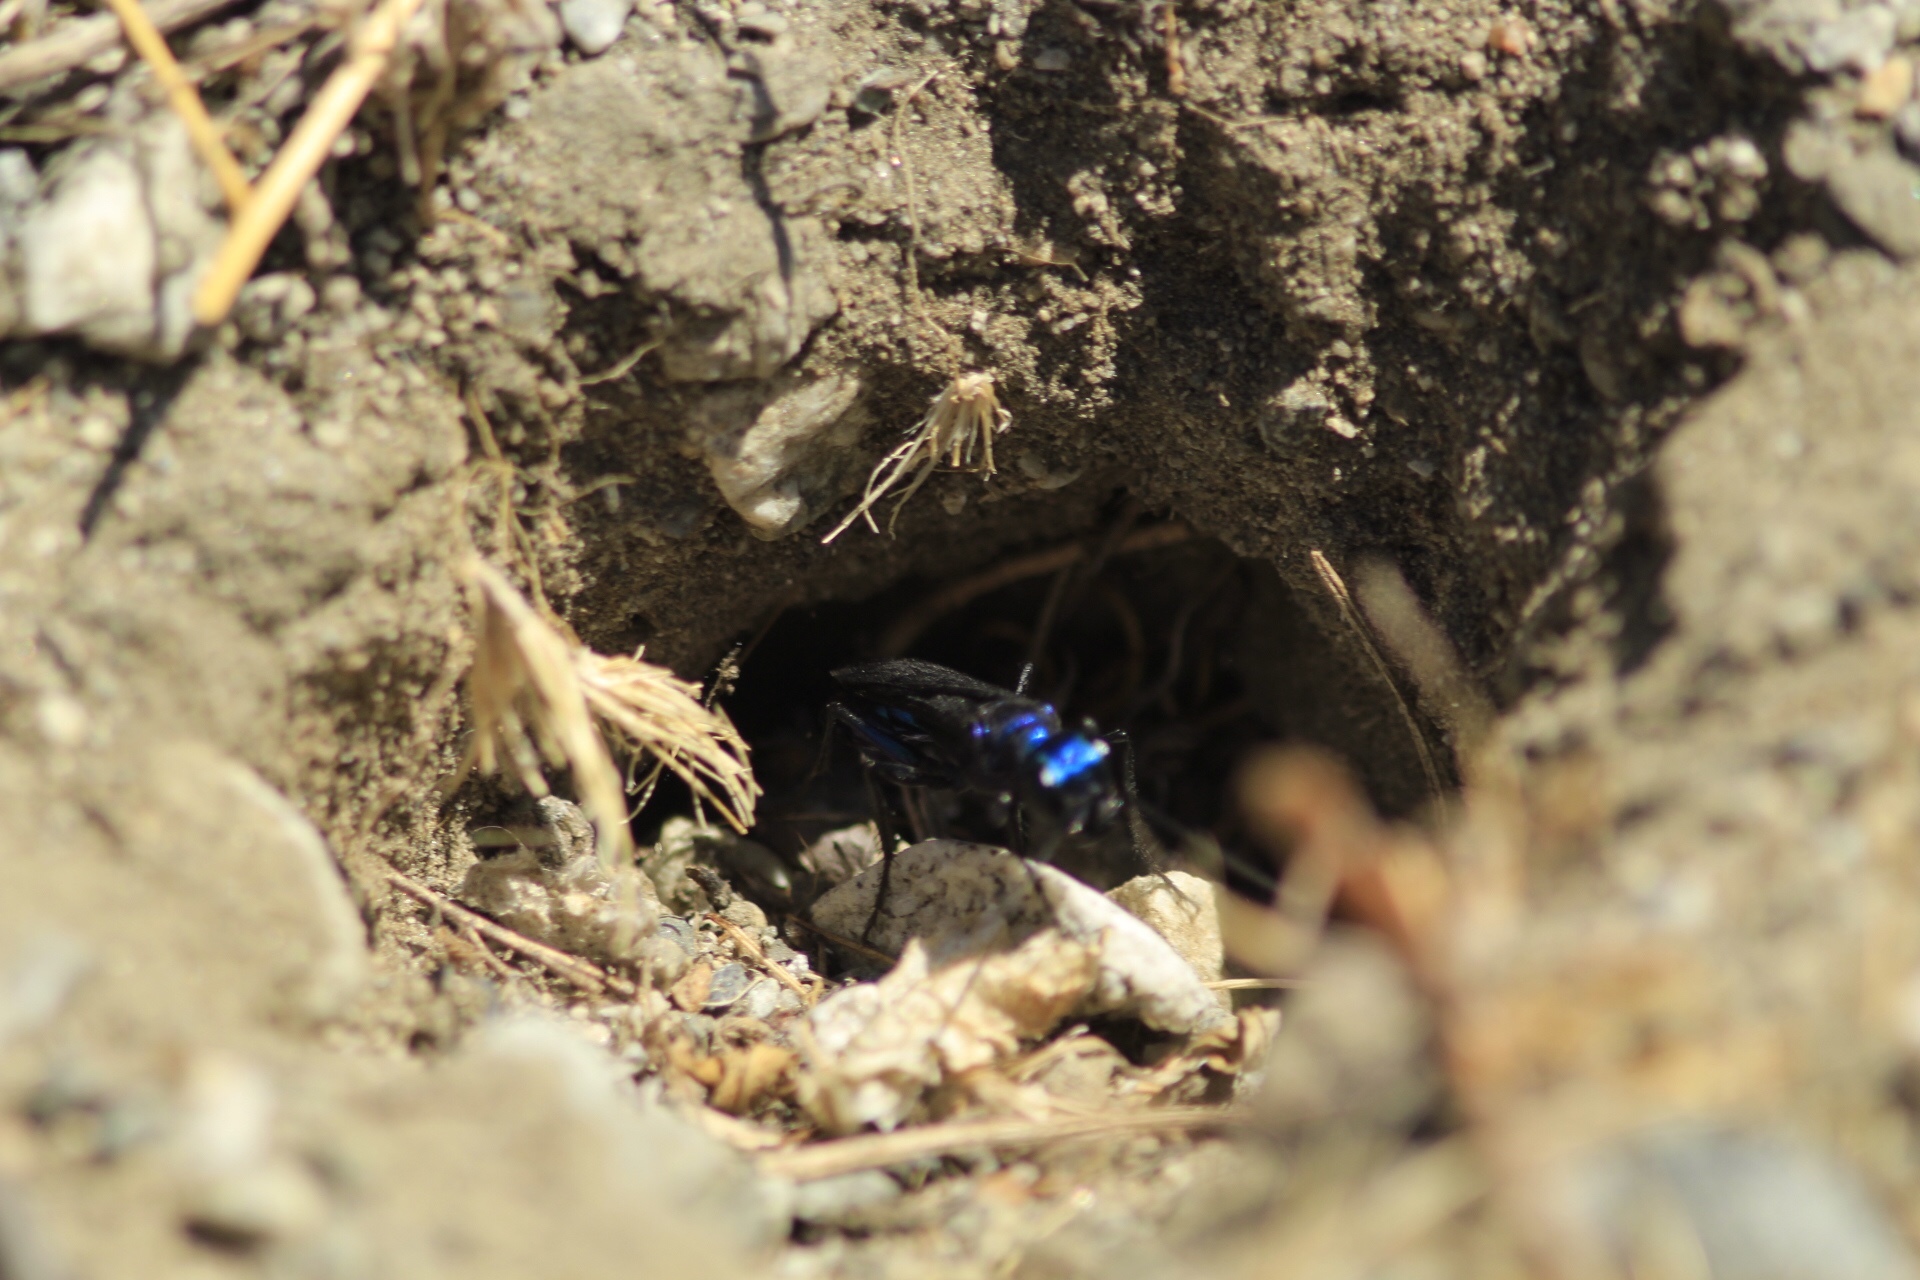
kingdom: Animalia
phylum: Arthropoda
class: Insecta
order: Hymenoptera
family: Sphecidae
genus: Chlorion
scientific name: Chlorion aerarium
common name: Steel-blue cricket hunter
